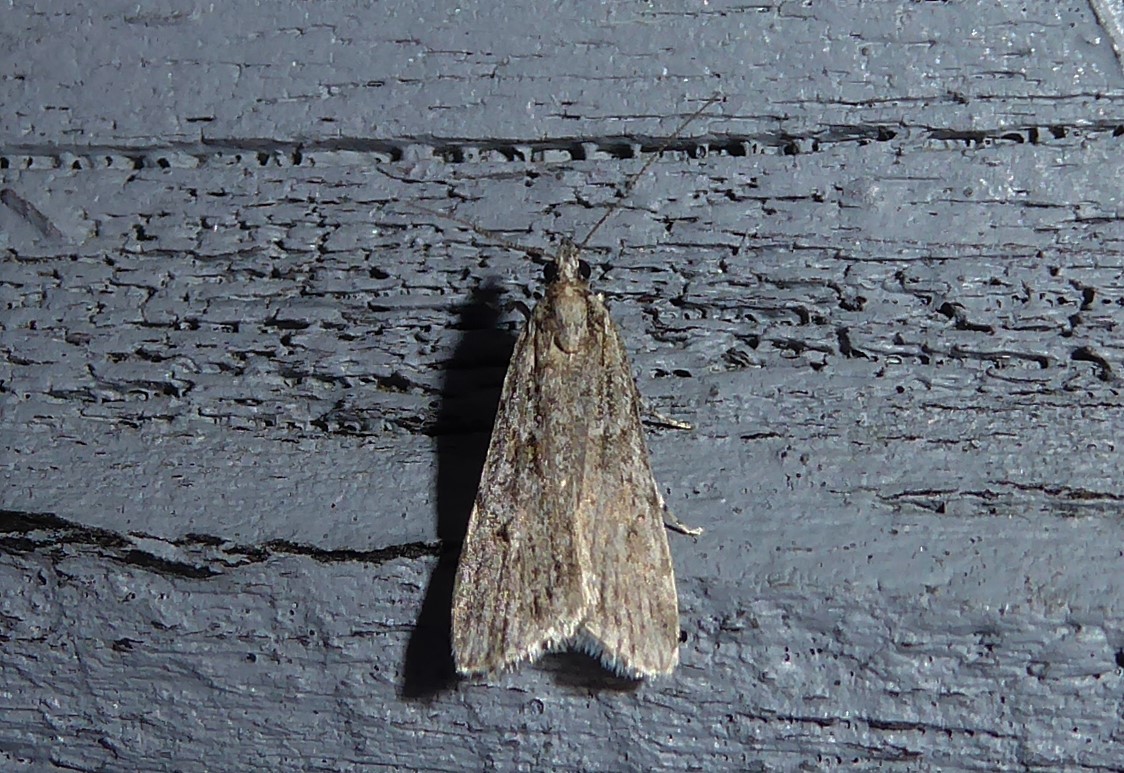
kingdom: Animalia
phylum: Arthropoda
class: Insecta
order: Lepidoptera
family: Crambidae
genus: Scoparia
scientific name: Scoparia chalicodes
